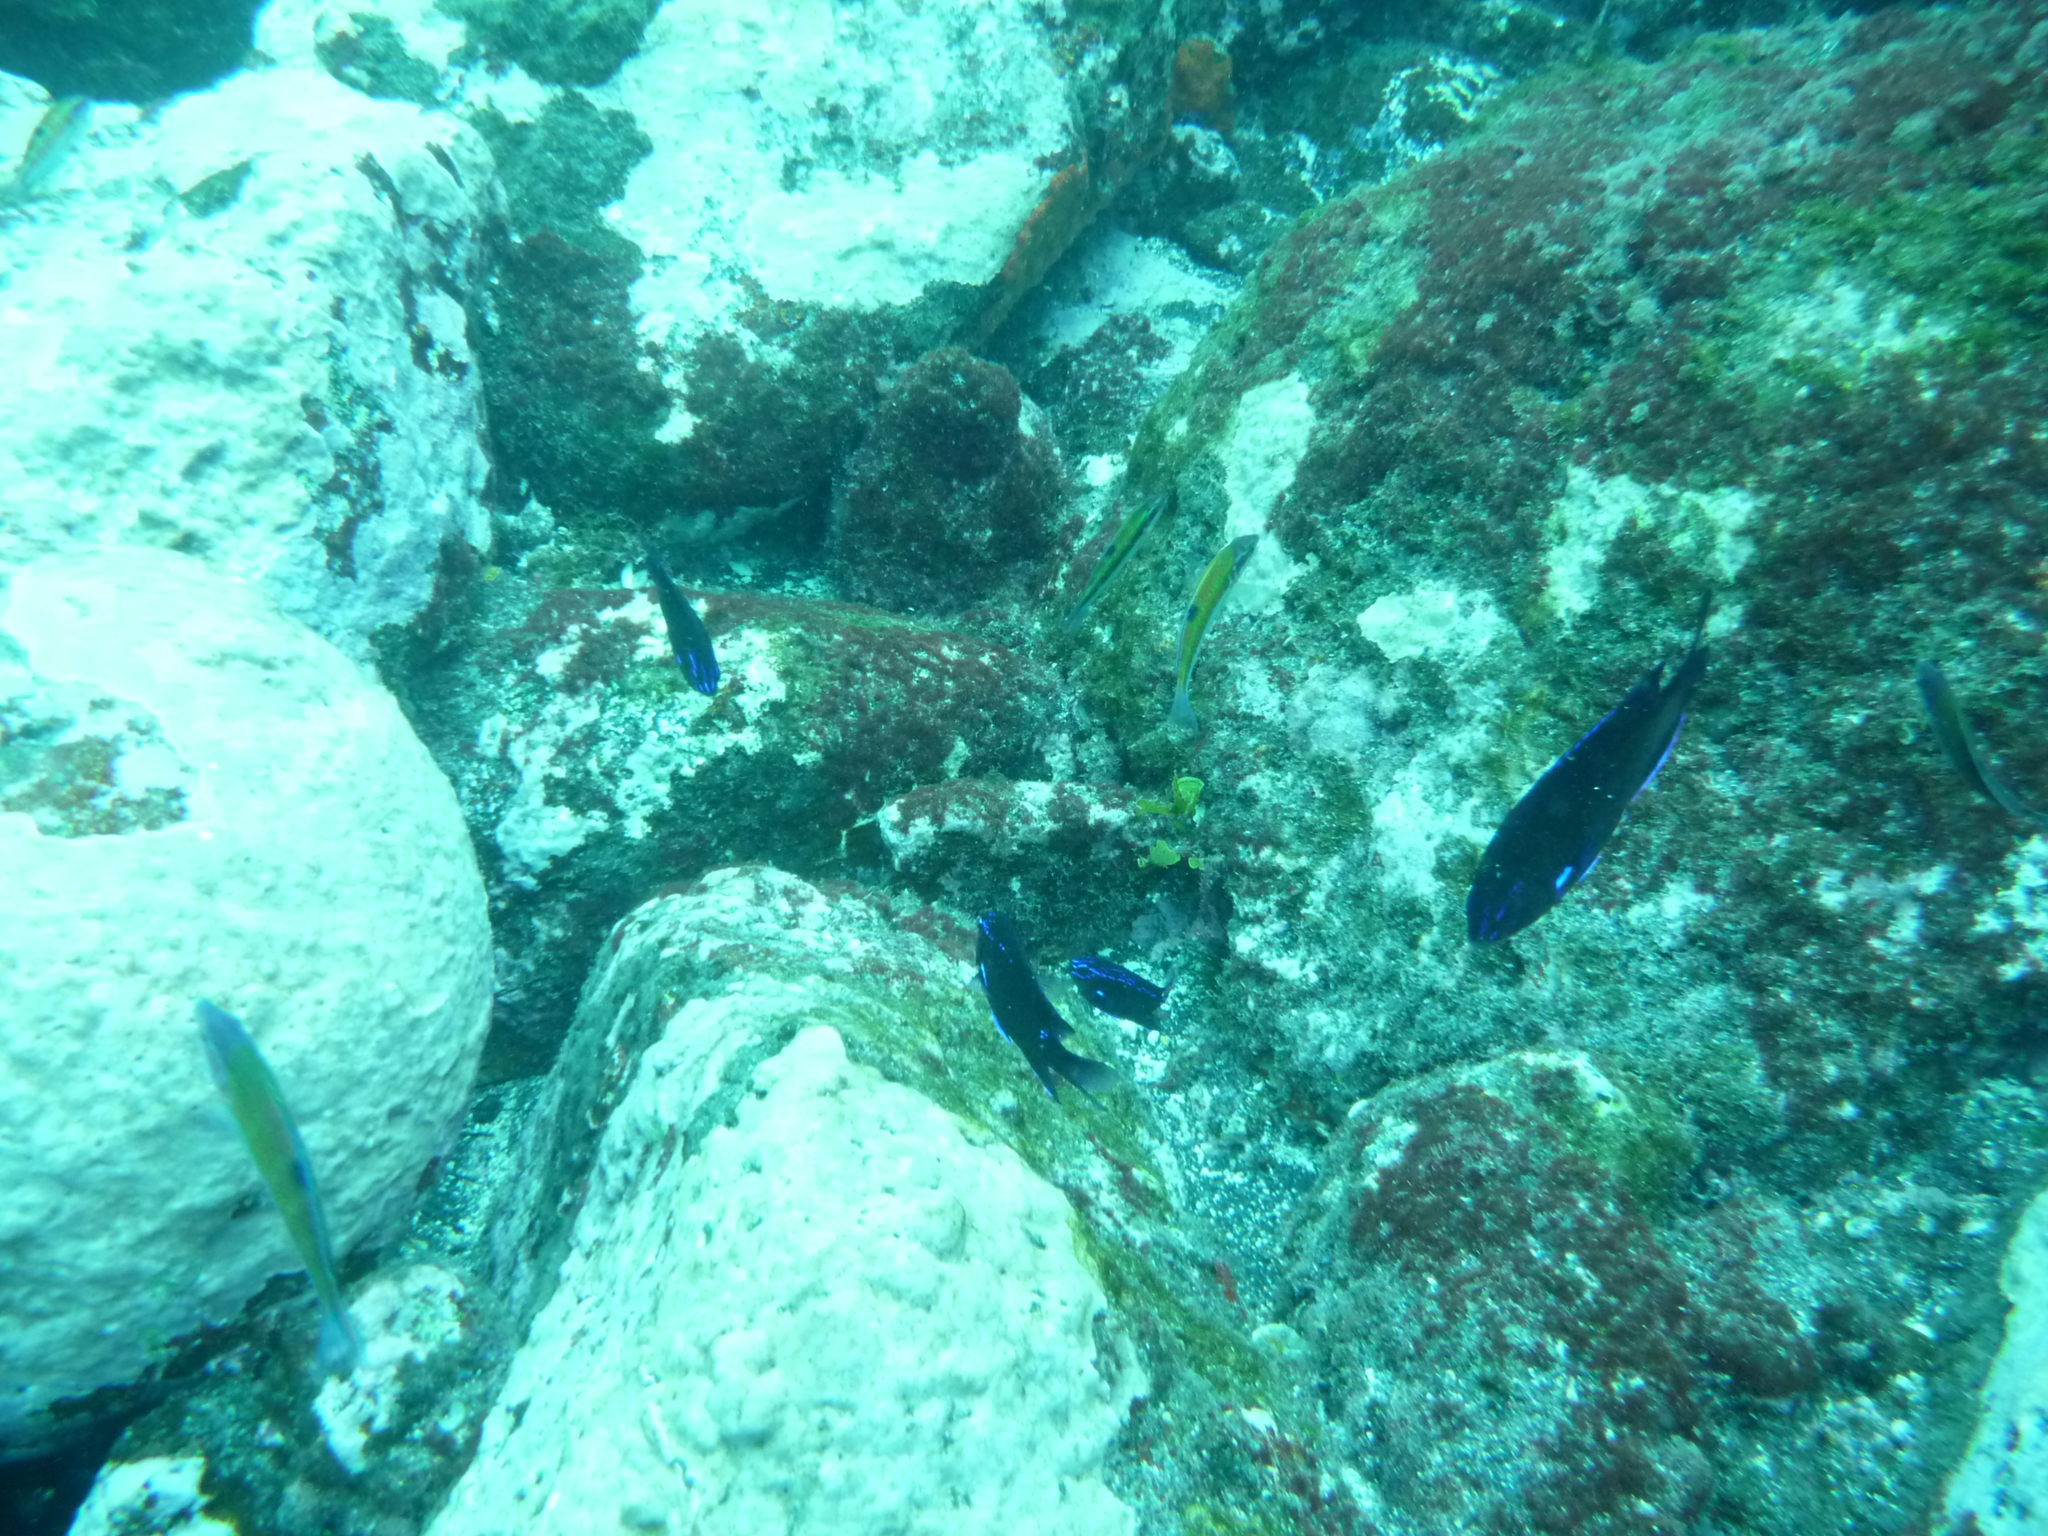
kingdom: Animalia
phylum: Chordata
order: Perciformes
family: Pomacentridae
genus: Similiparma
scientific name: Similiparma lurida
